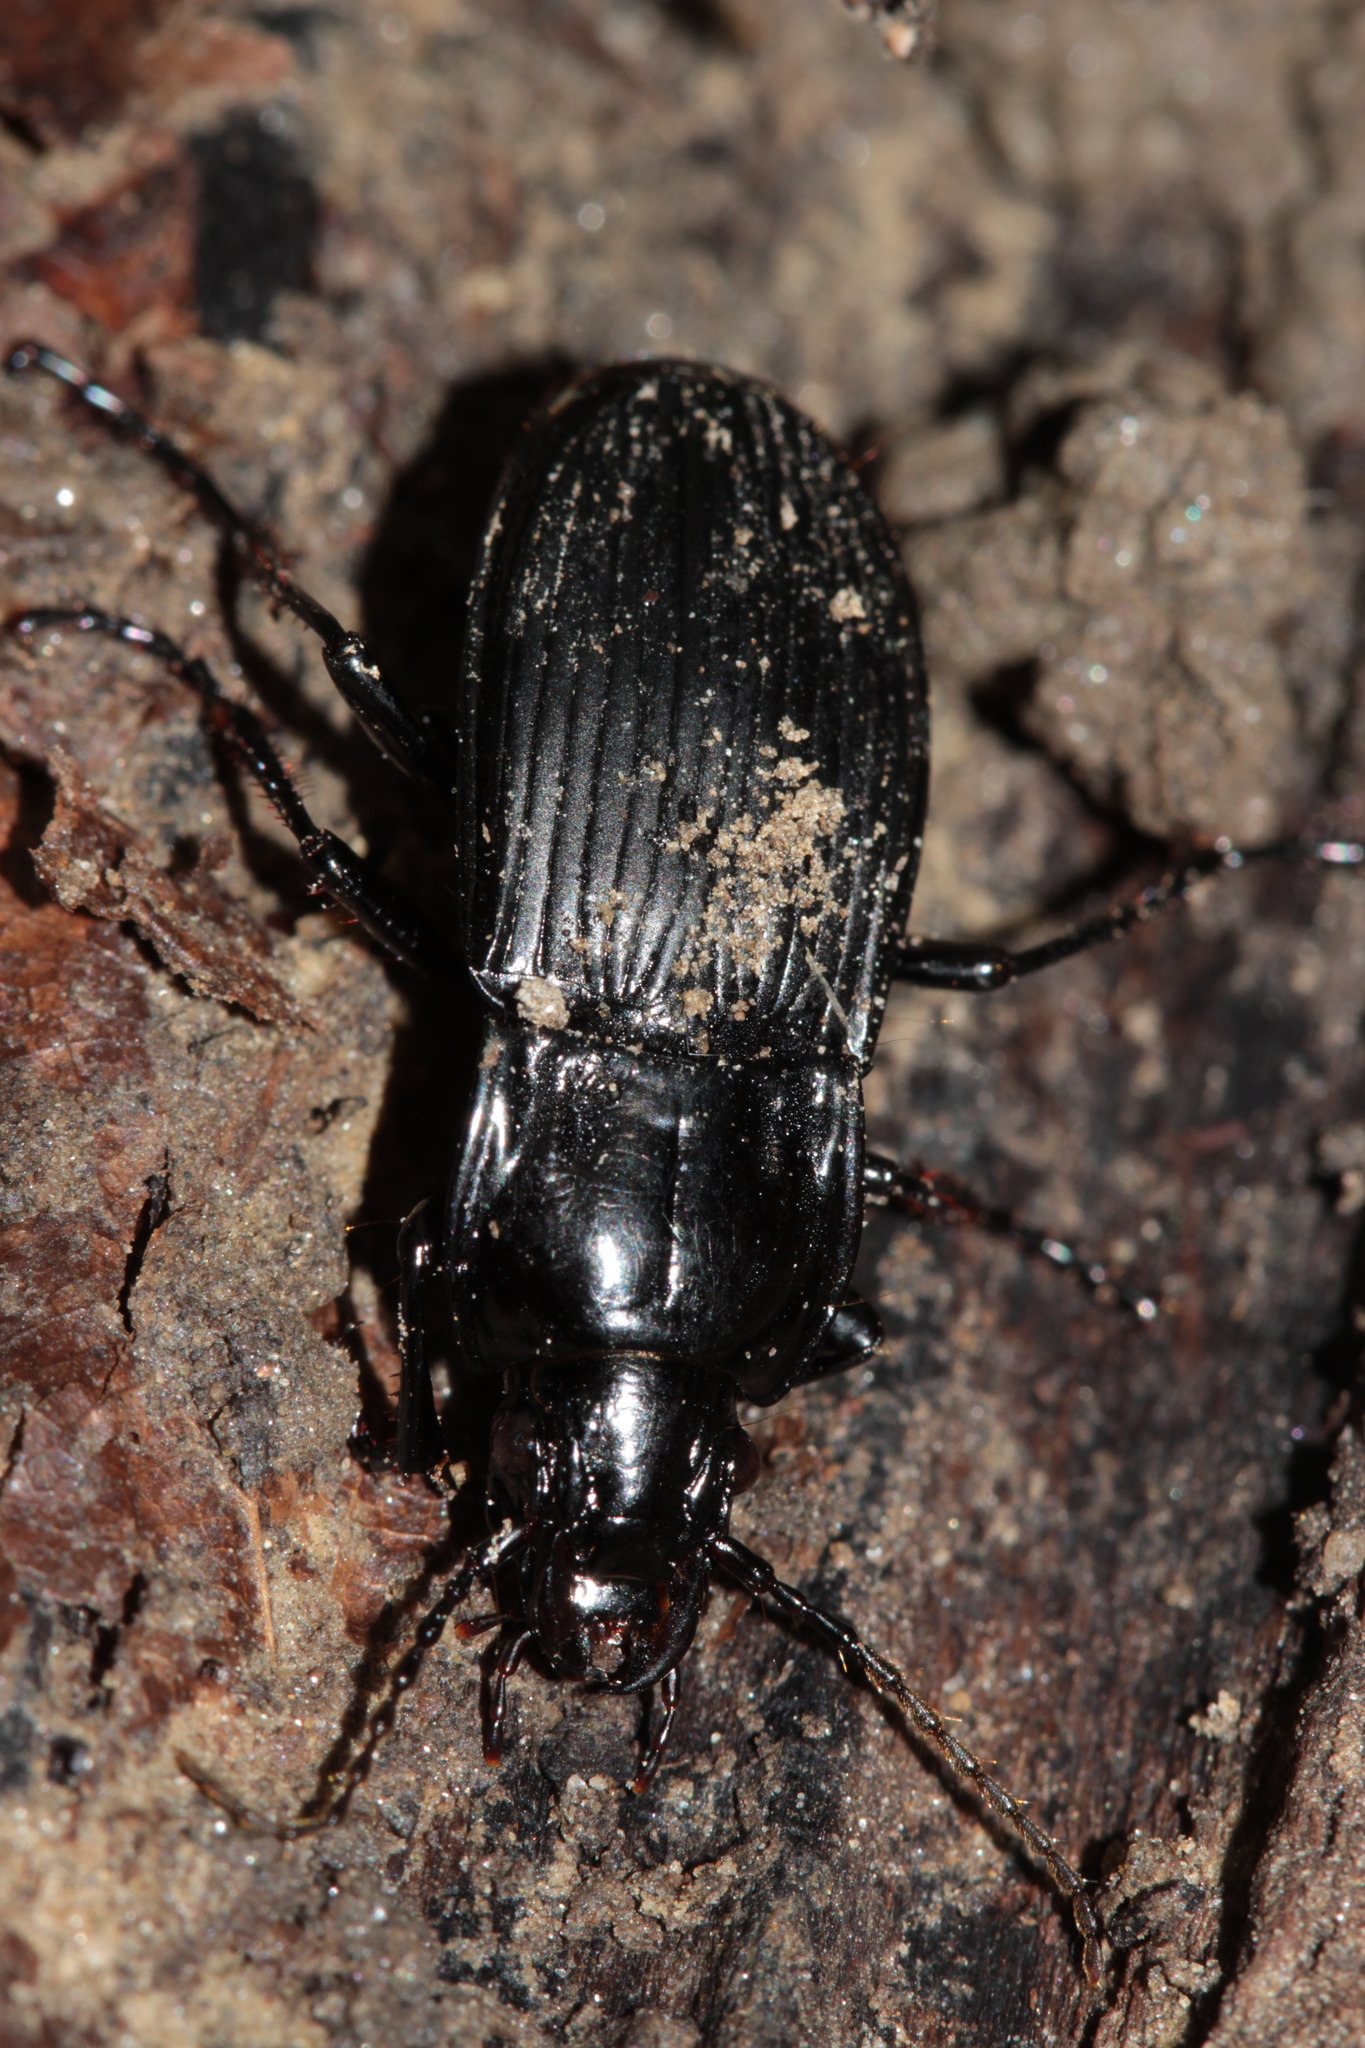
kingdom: Animalia
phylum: Arthropoda
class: Insecta
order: Coleoptera
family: Carabidae
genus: Abax
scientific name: Abax parallelepipedus
